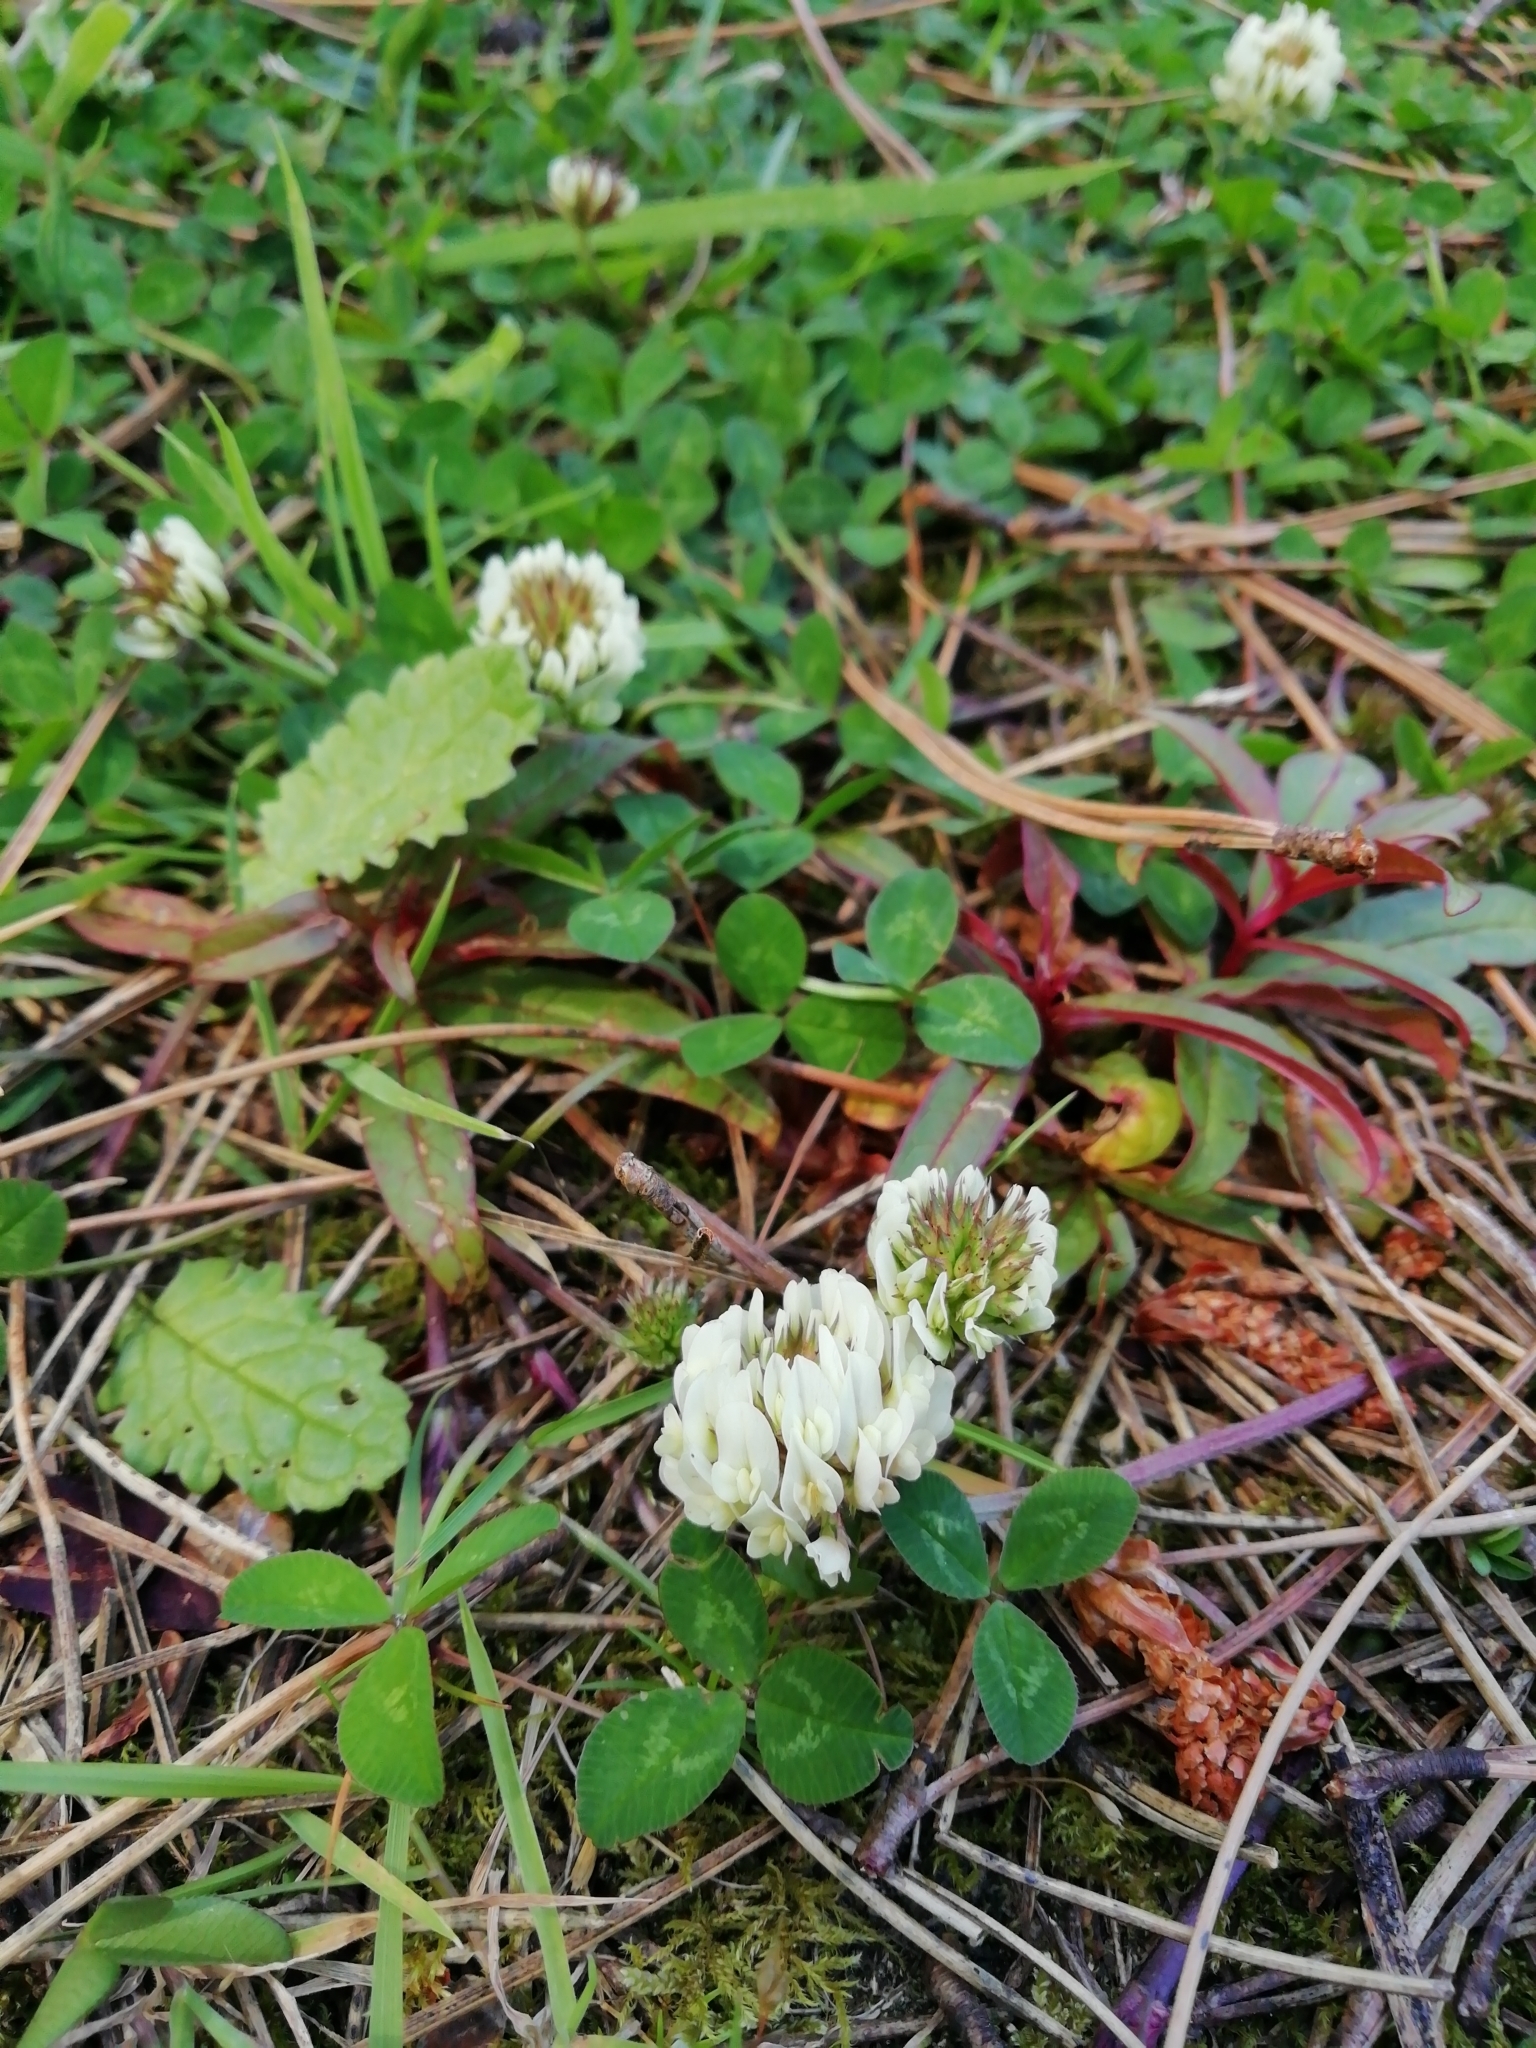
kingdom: Plantae
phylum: Tracheophyta
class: Magnoliopsida
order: Fabales
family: Fabaceae
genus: Trifolium
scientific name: Trifolium repens
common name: White clover
